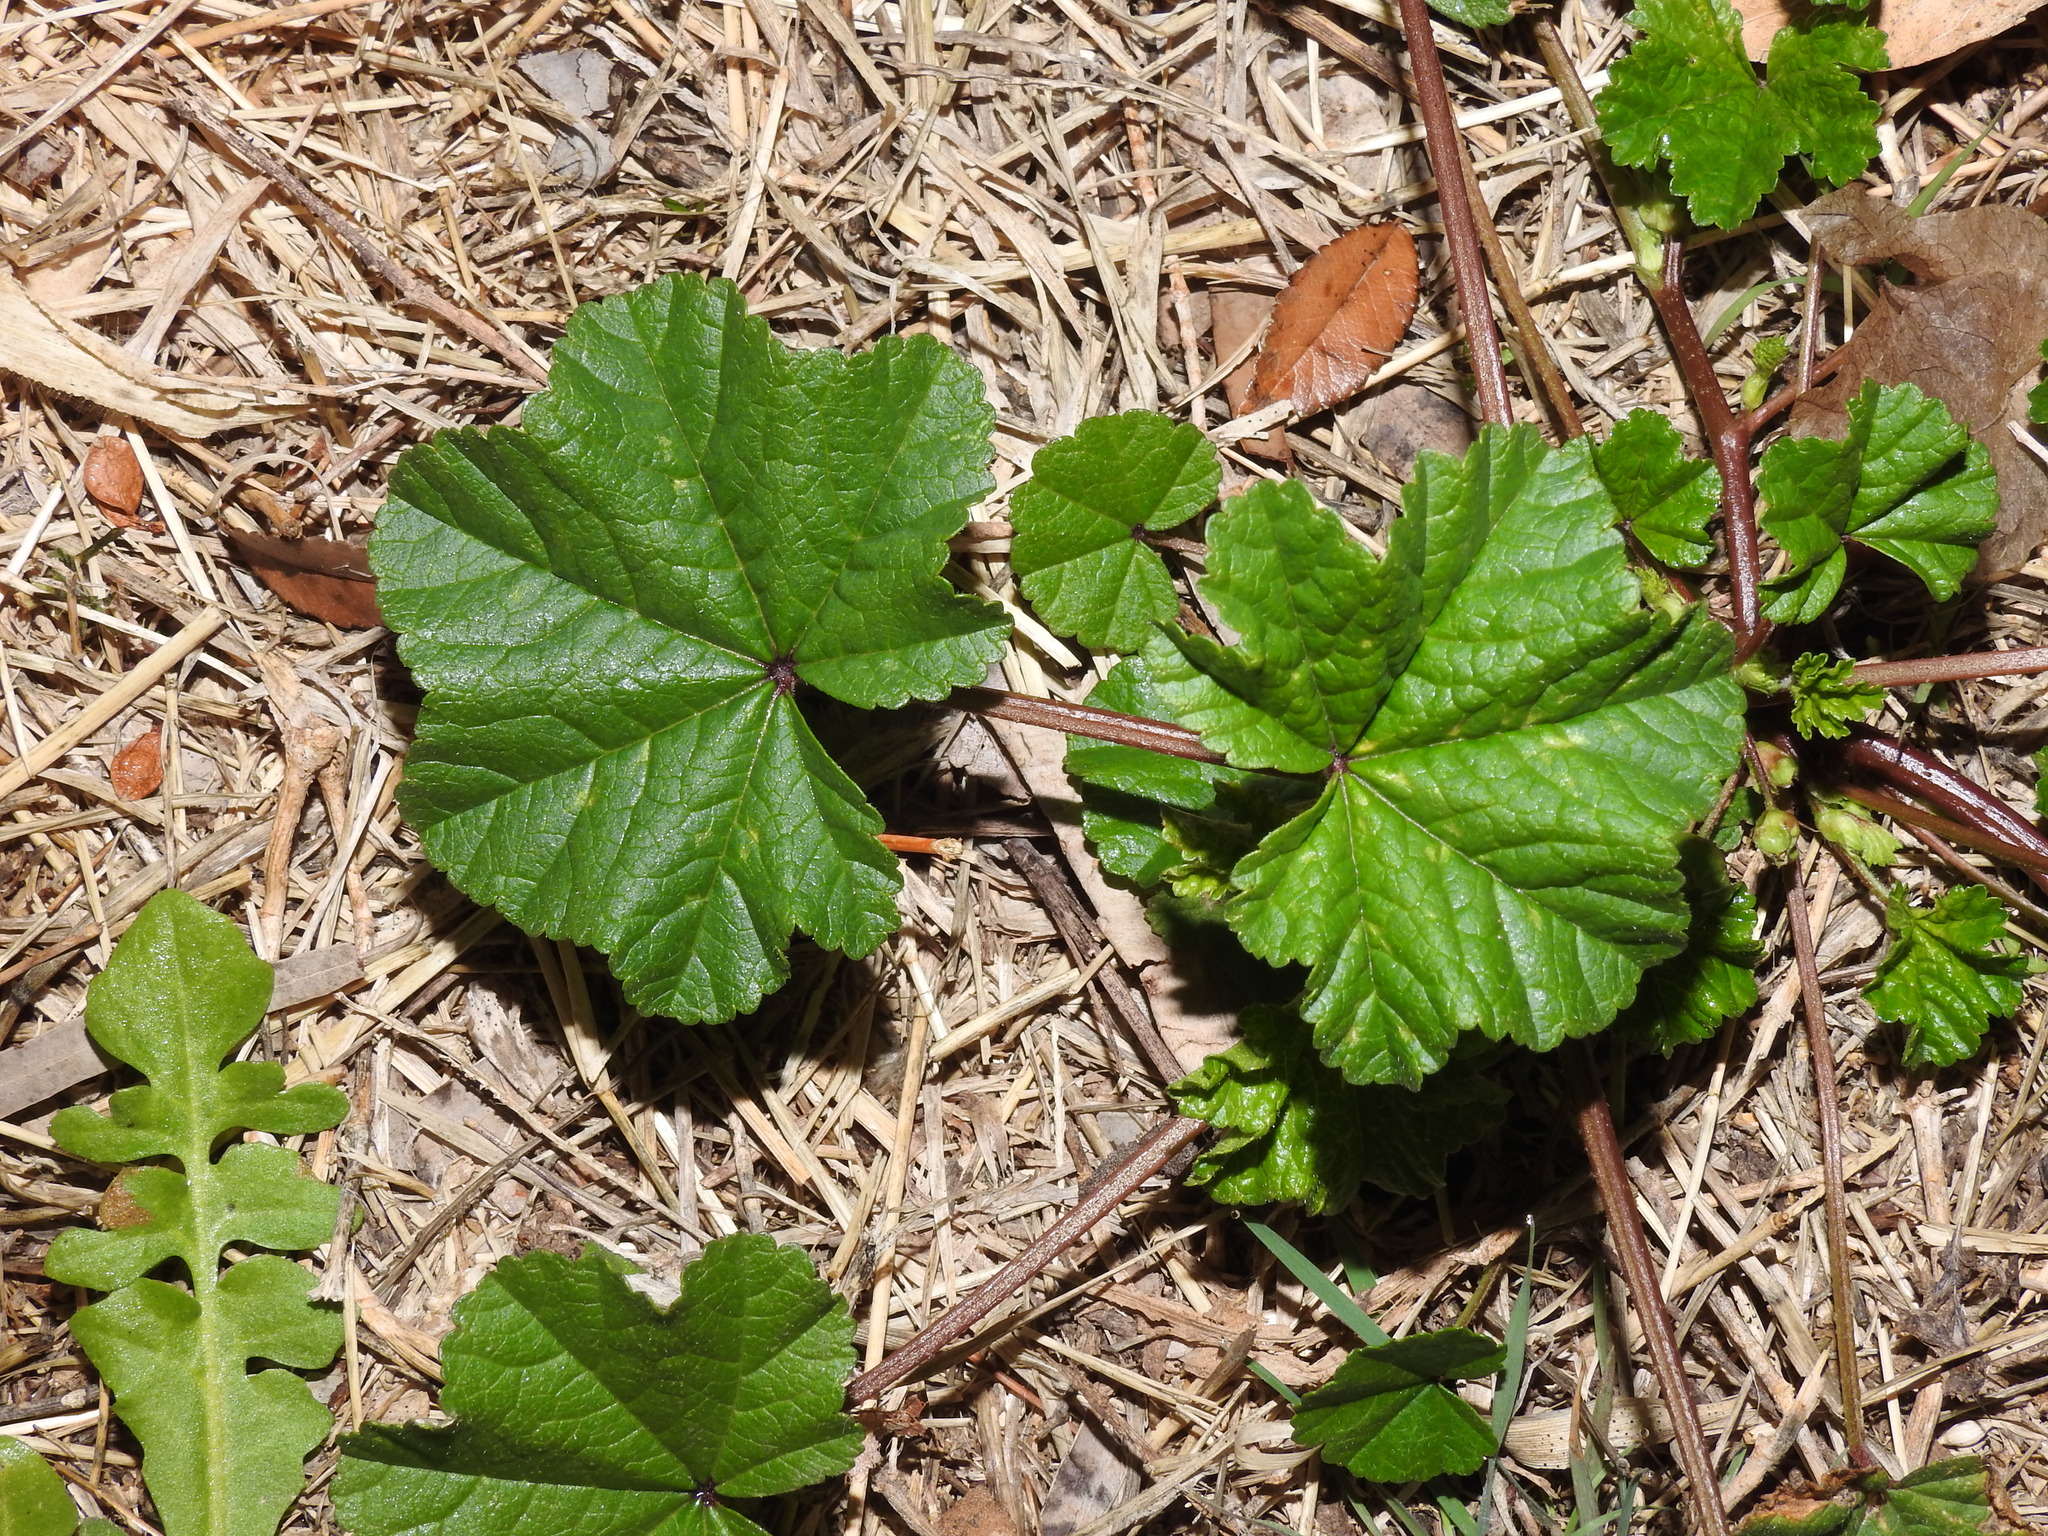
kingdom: Plantae
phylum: Tracheophyta
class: Magnoliopsida
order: Malvales
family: Malvaceae
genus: Malva
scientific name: Malva parviflora
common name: Least mallow
